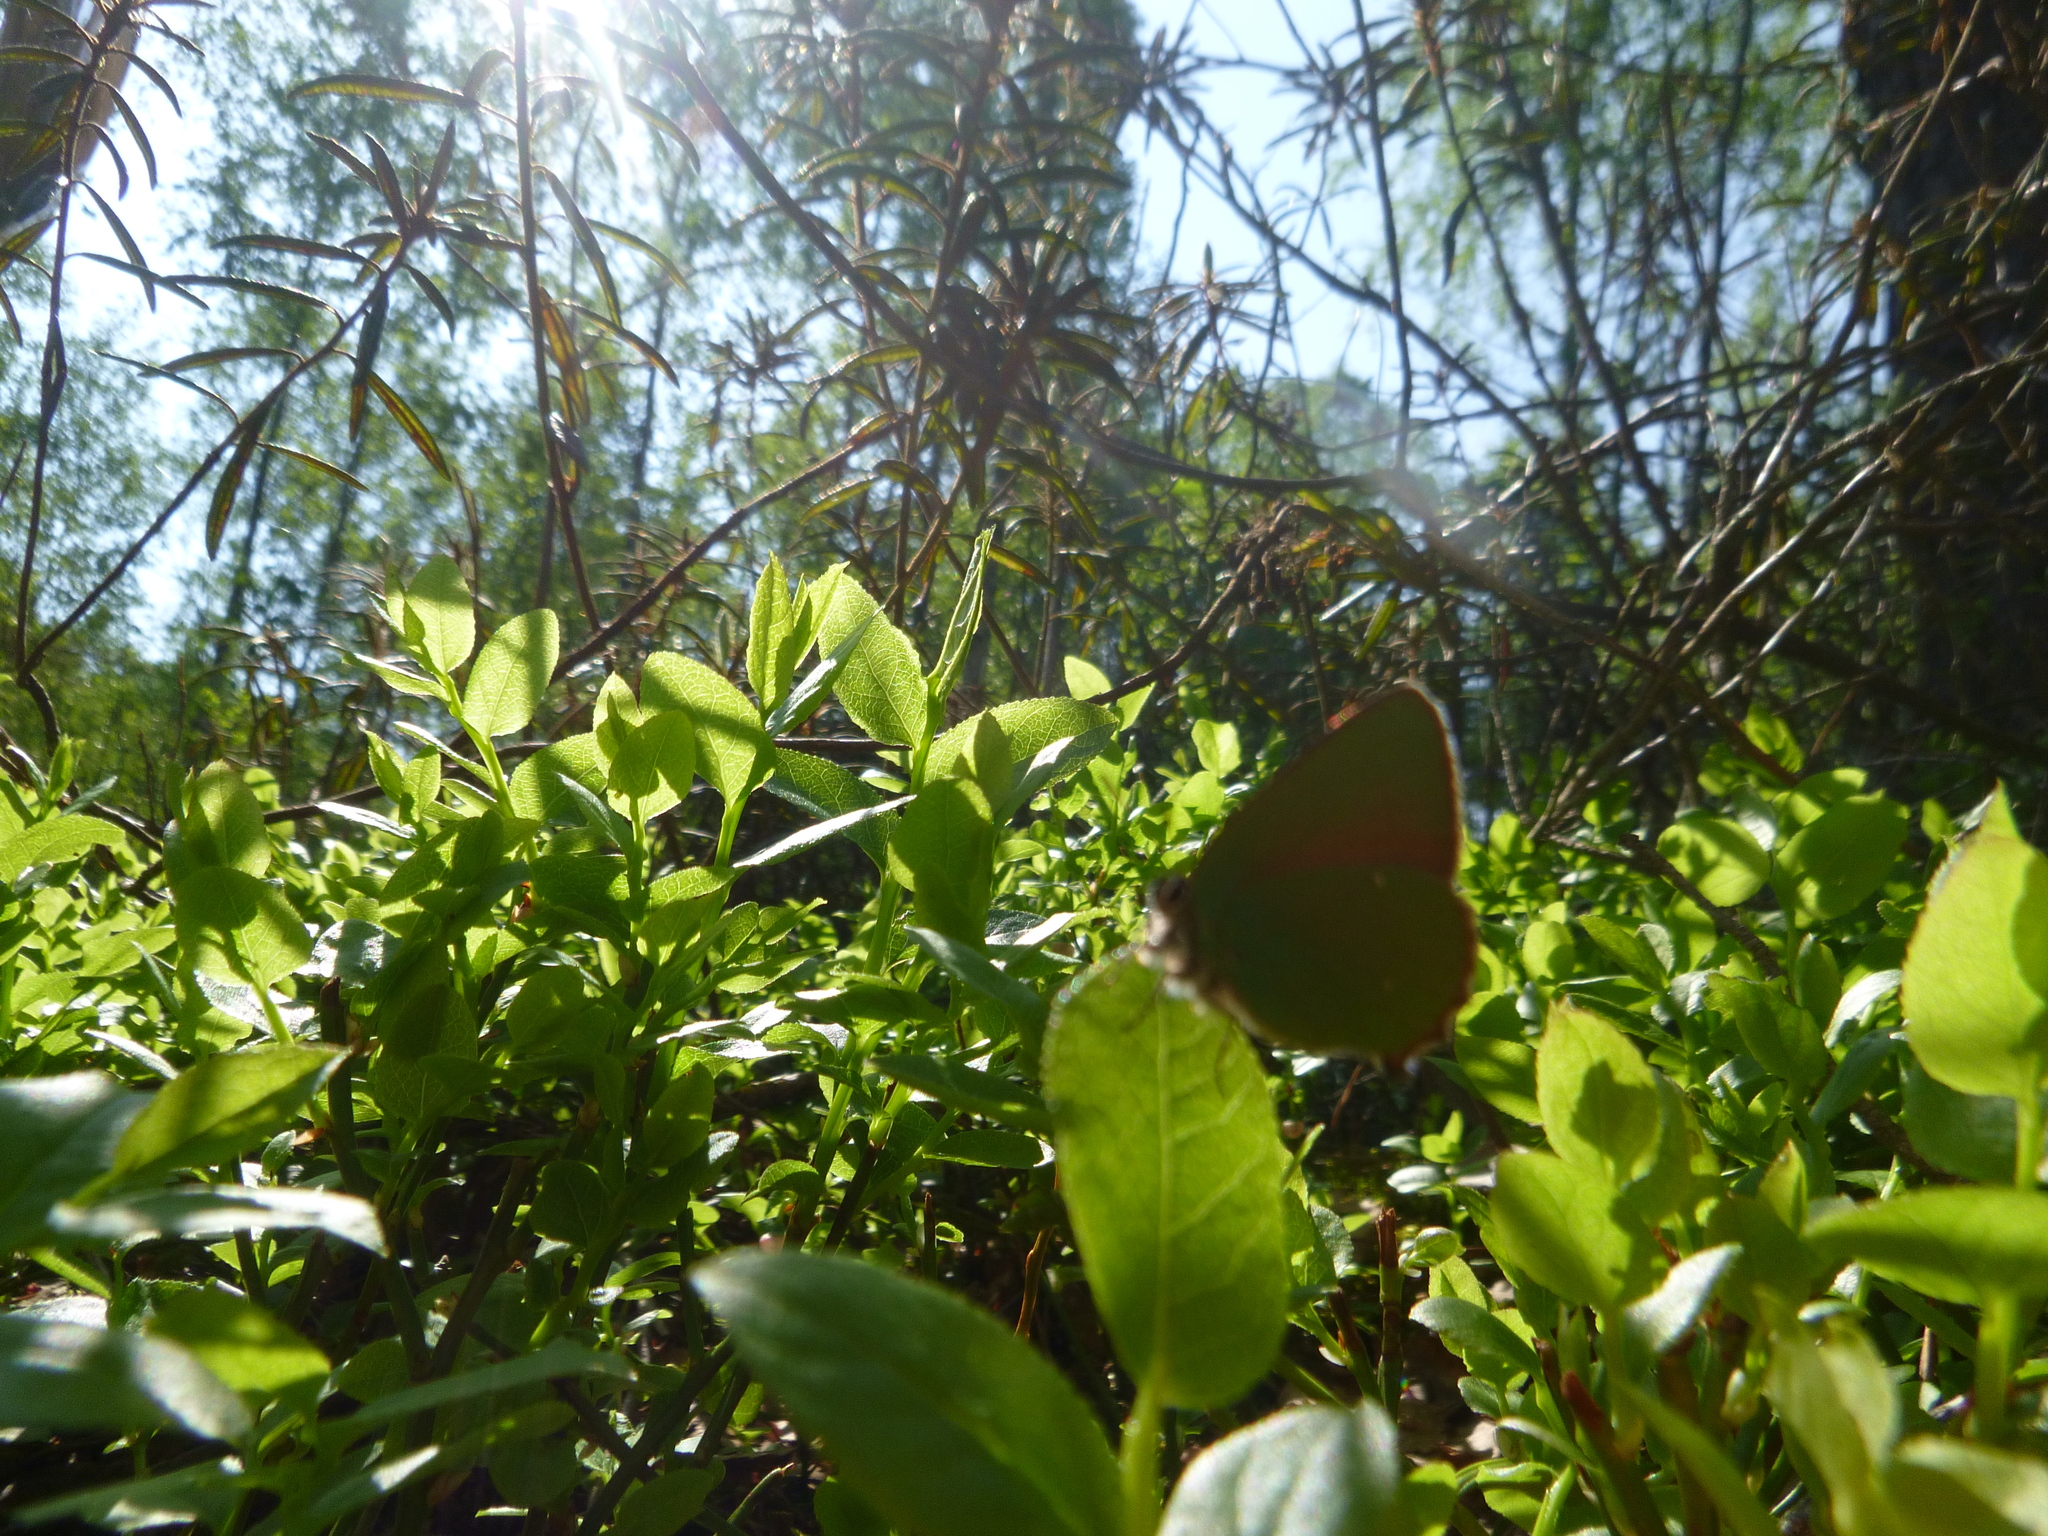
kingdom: Animalia
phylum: Arthropoda
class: Insecta
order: Lepidoptera
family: Lycaenidae
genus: Callophrys
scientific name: Callophrys rubi
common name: Green hairstreak
